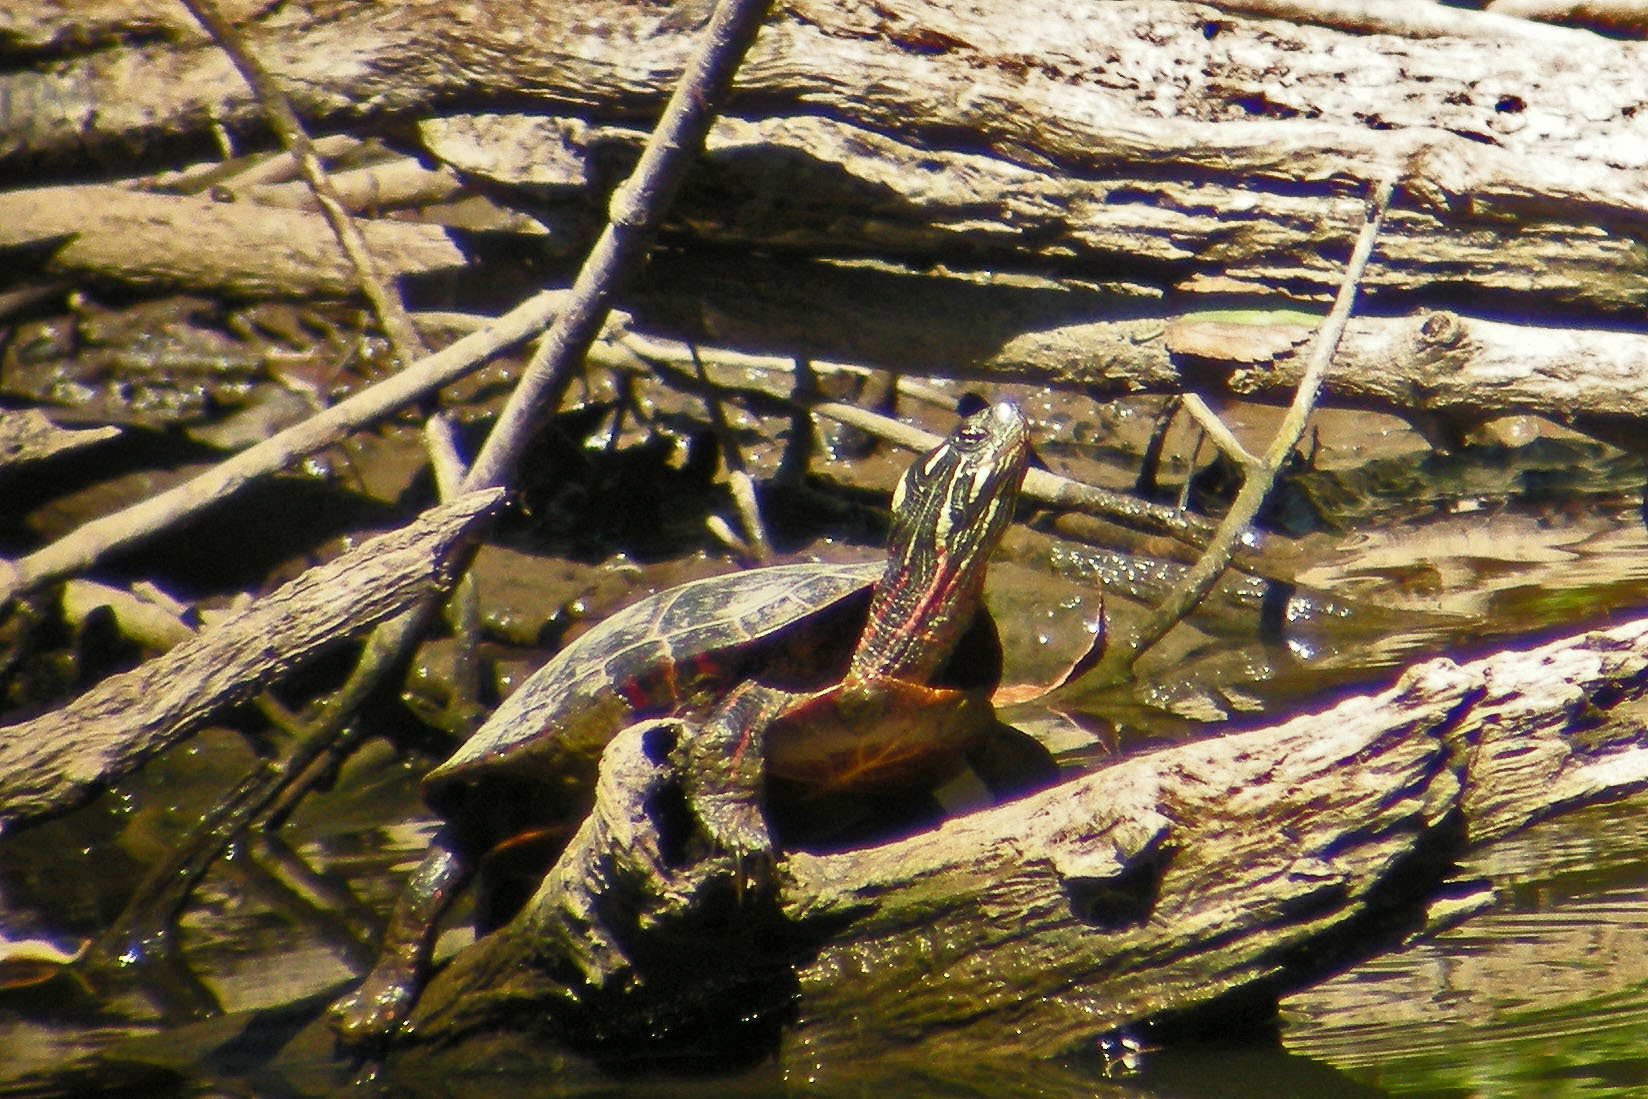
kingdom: Animalia
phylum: Chordata
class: Testudines
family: Emydidae
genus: Chrysemys
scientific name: Chrysemys picta
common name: Painted turtle
